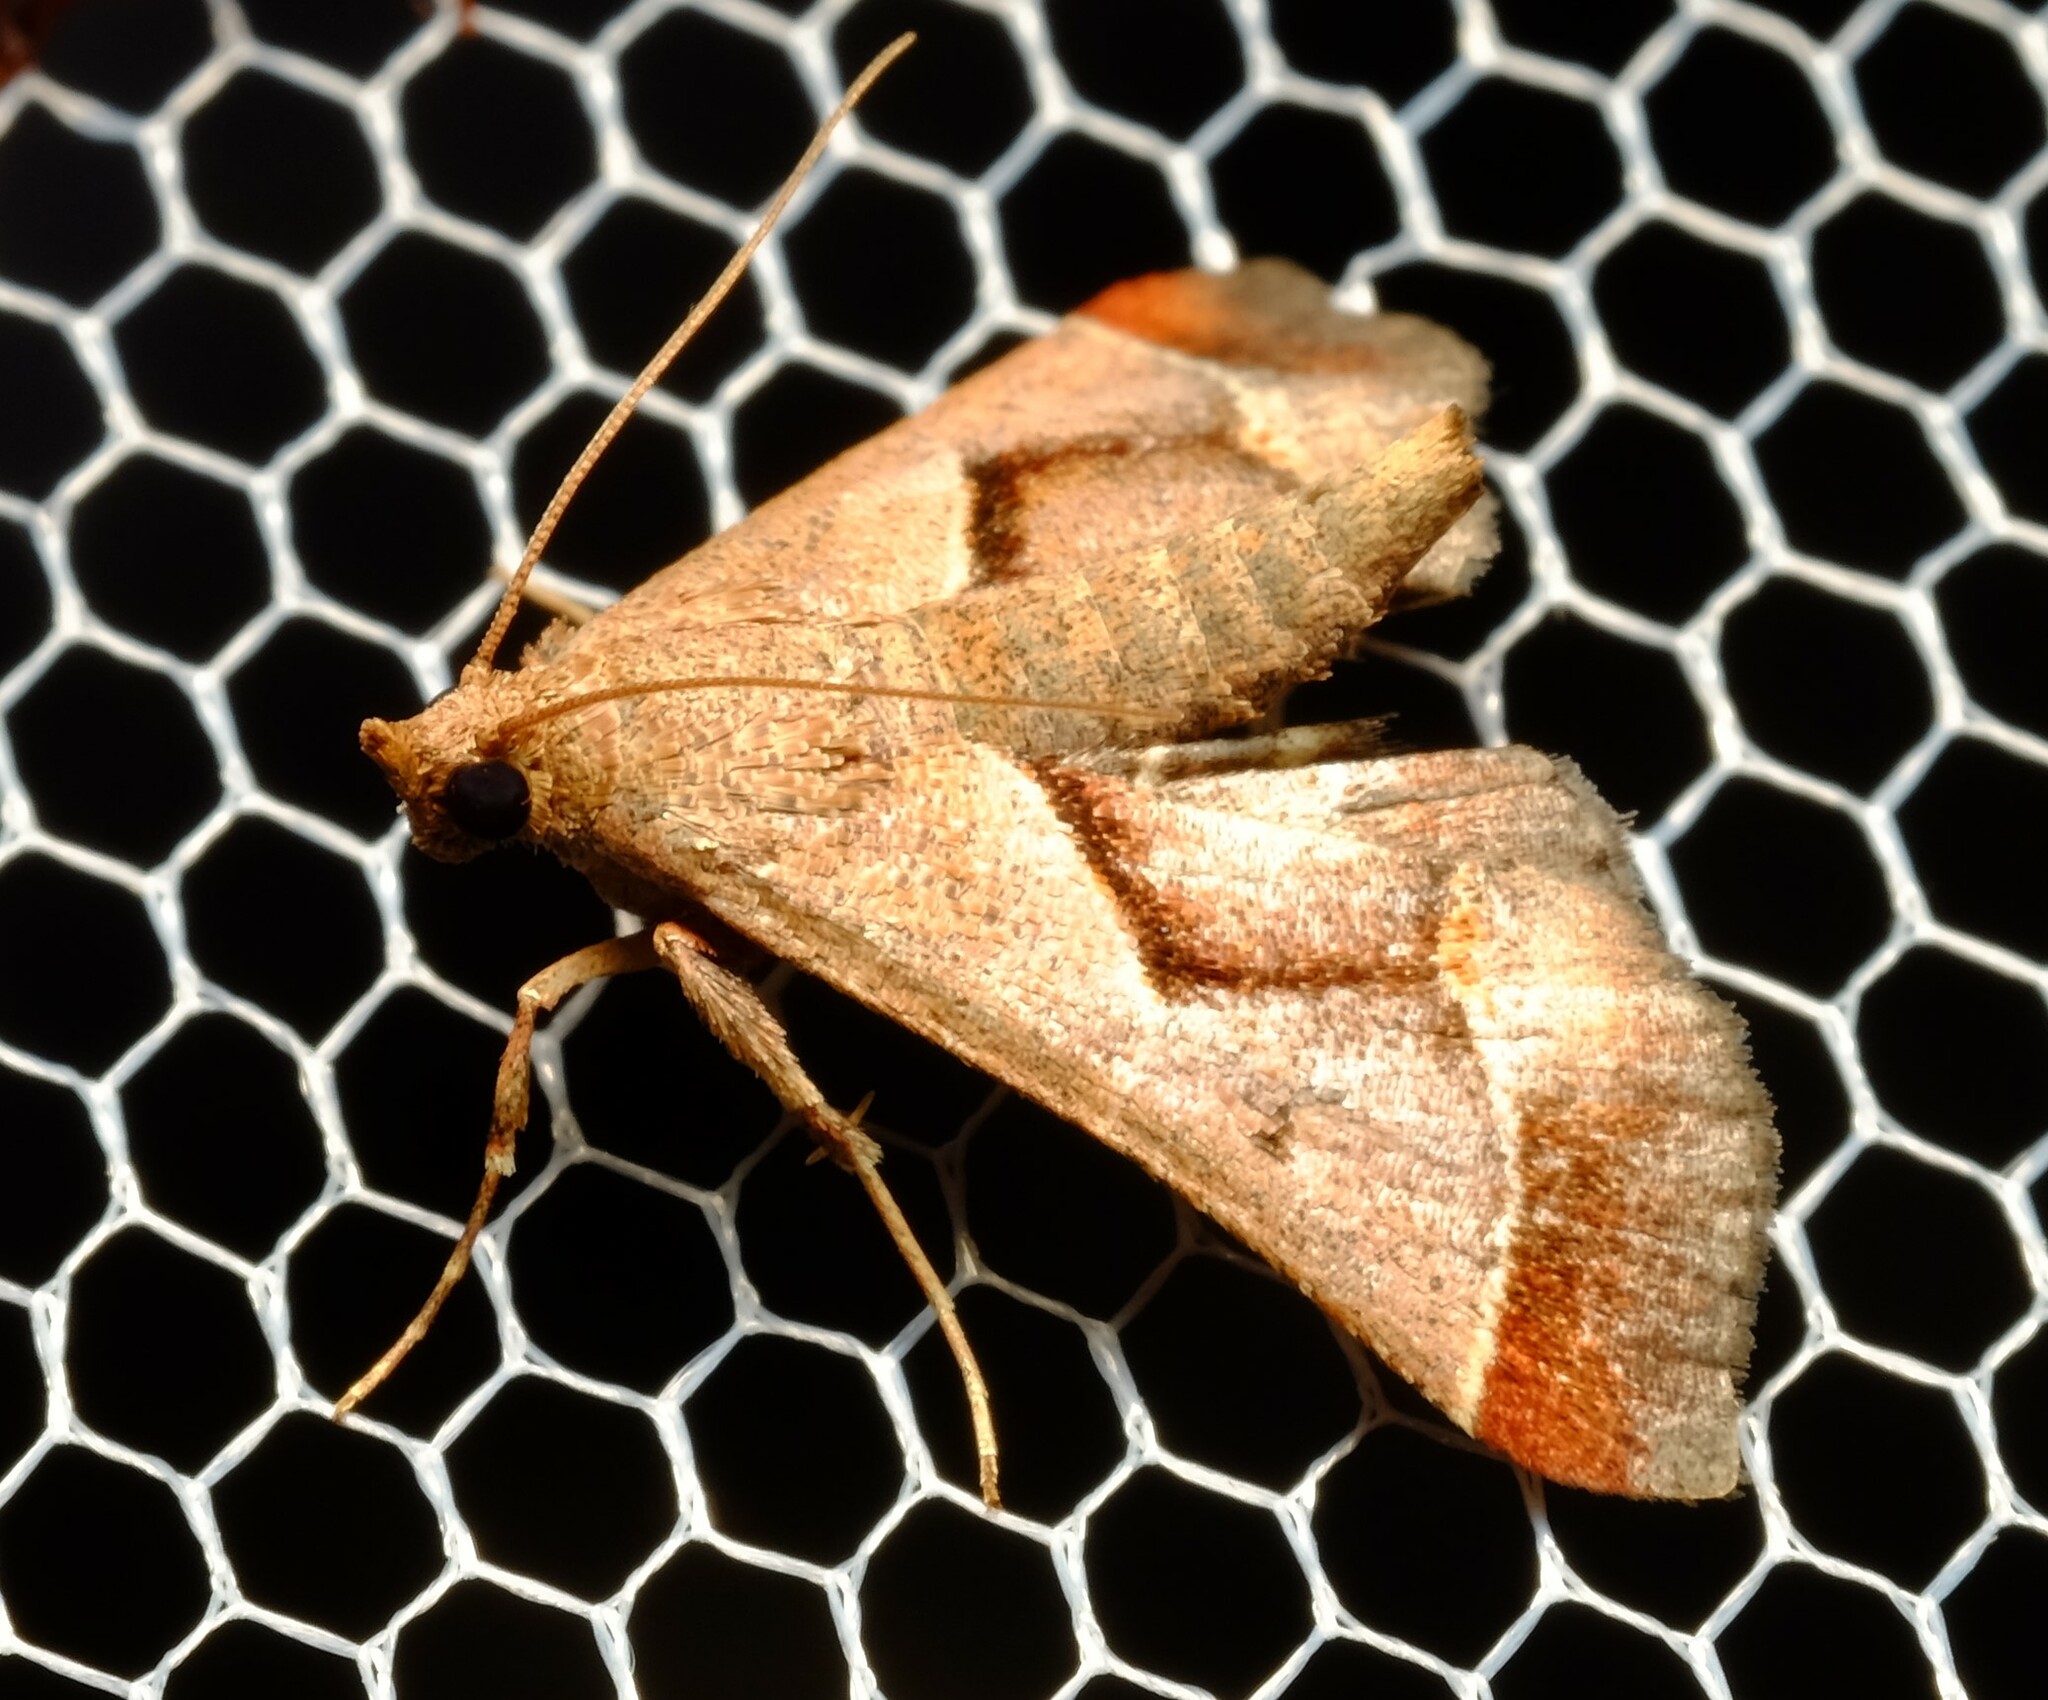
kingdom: Animalia
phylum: Arthropoda
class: Insecta
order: Lepidoptera
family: Pyralidae
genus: Gauna
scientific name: Gauna aegusalis
